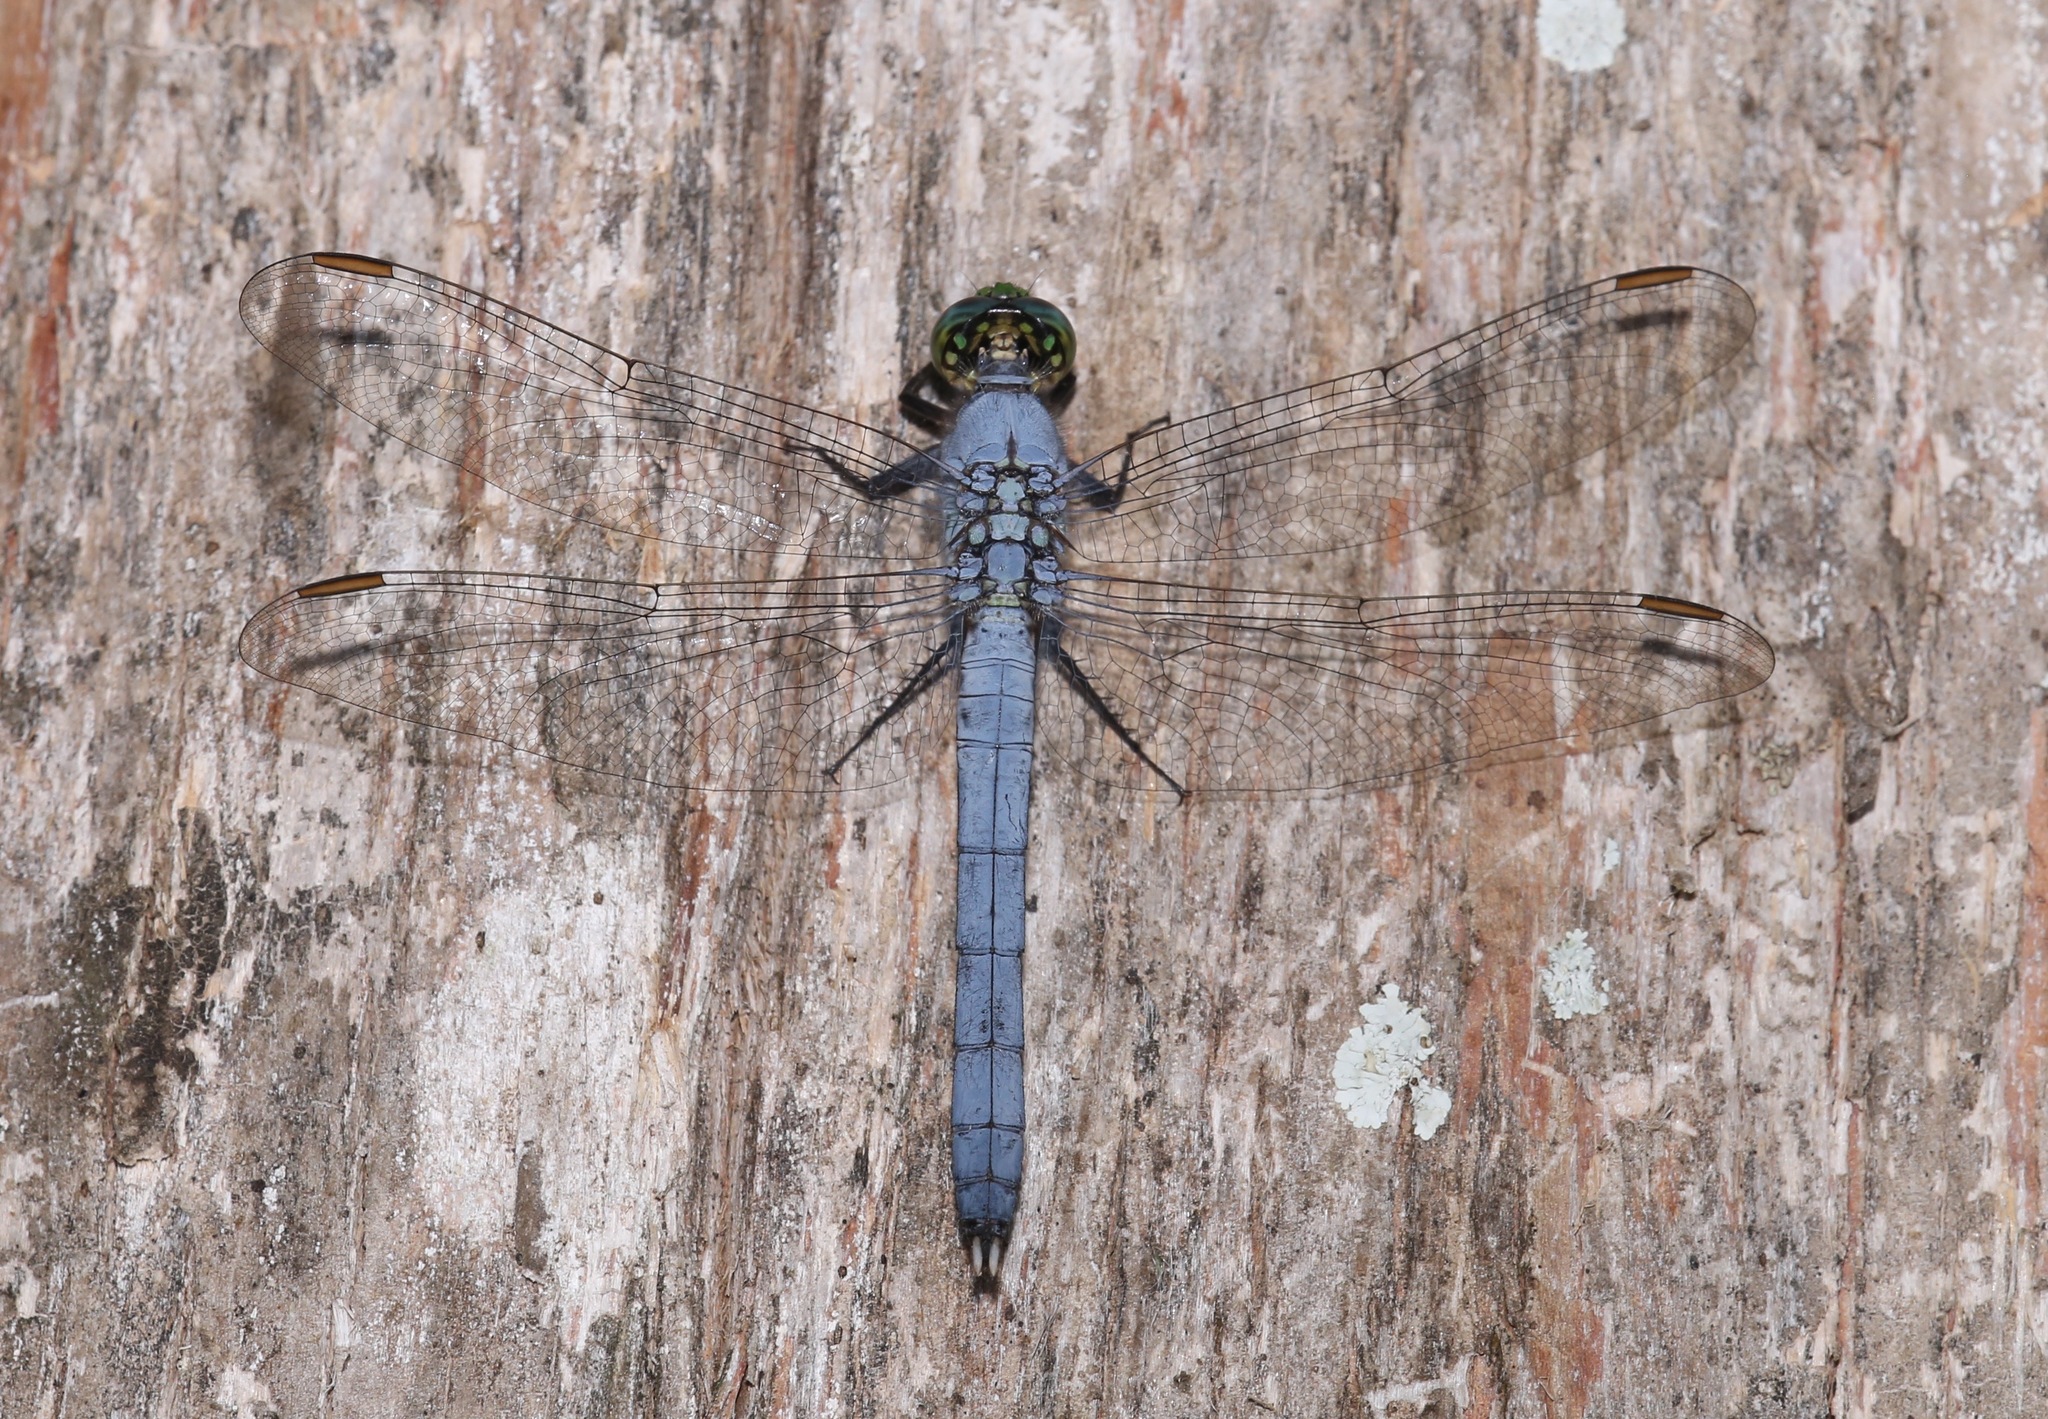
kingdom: Animalia
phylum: Arthropoda
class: Insecta
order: Odonata
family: Libellulidae
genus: Erythemis
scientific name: Erythemis simplicicollis
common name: Eastern pondhawk
